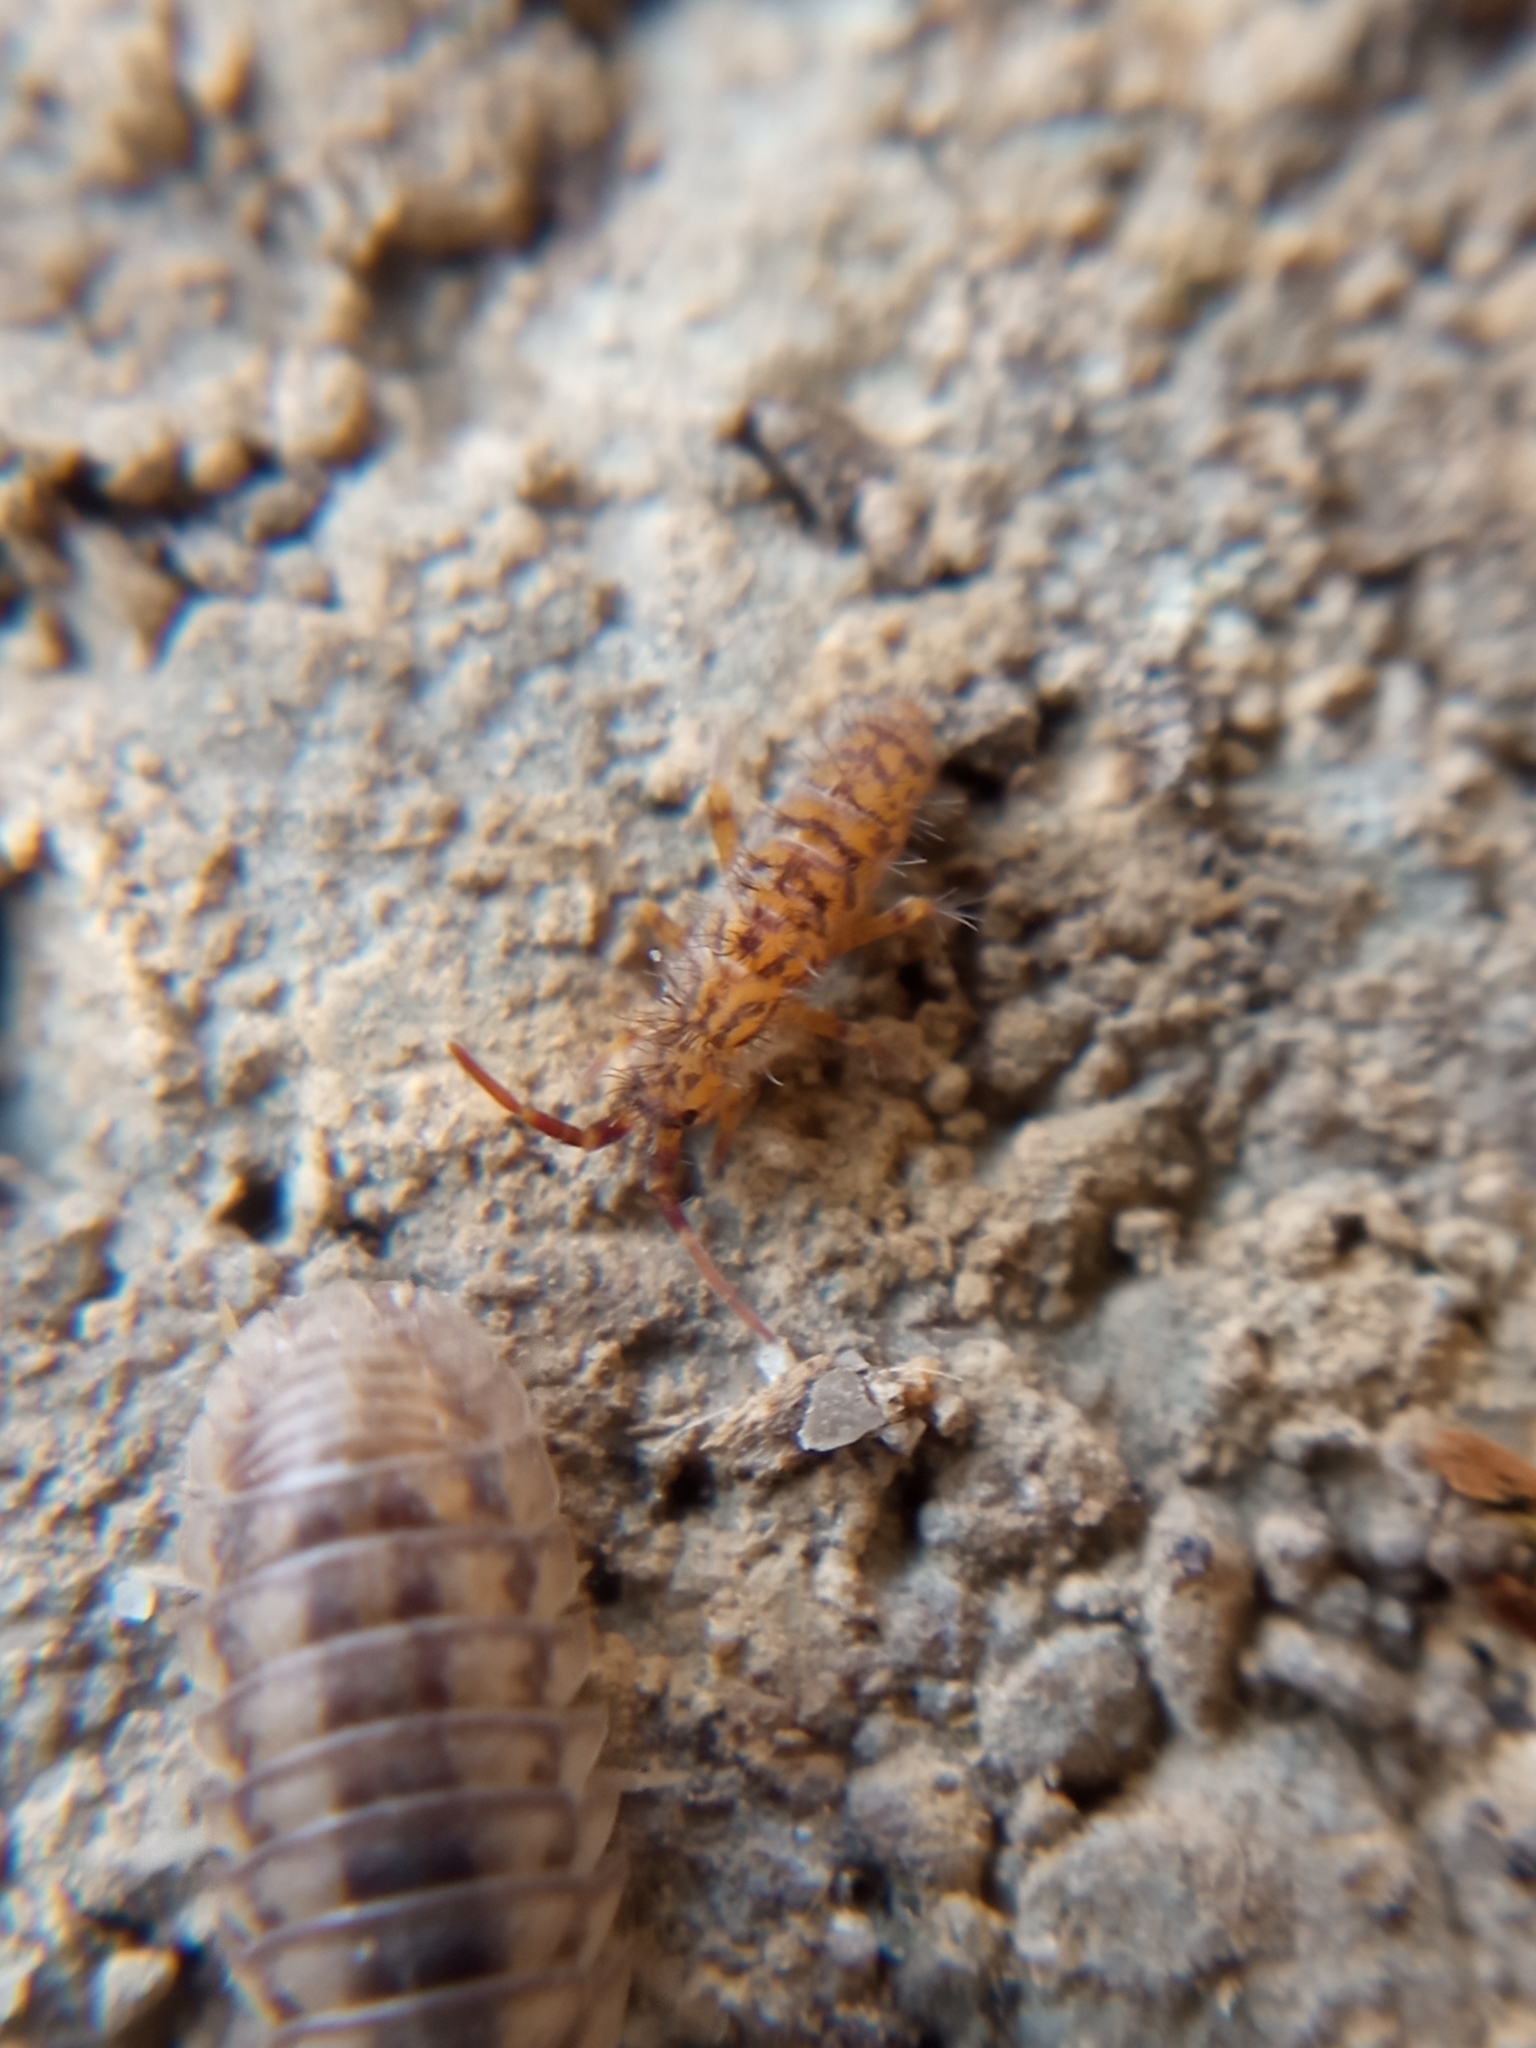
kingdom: Animalia
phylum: Arthropoda
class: Collembola
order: Entomobryomorpha
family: Orchesellidae
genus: Orchesella
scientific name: Orchesella villosa
